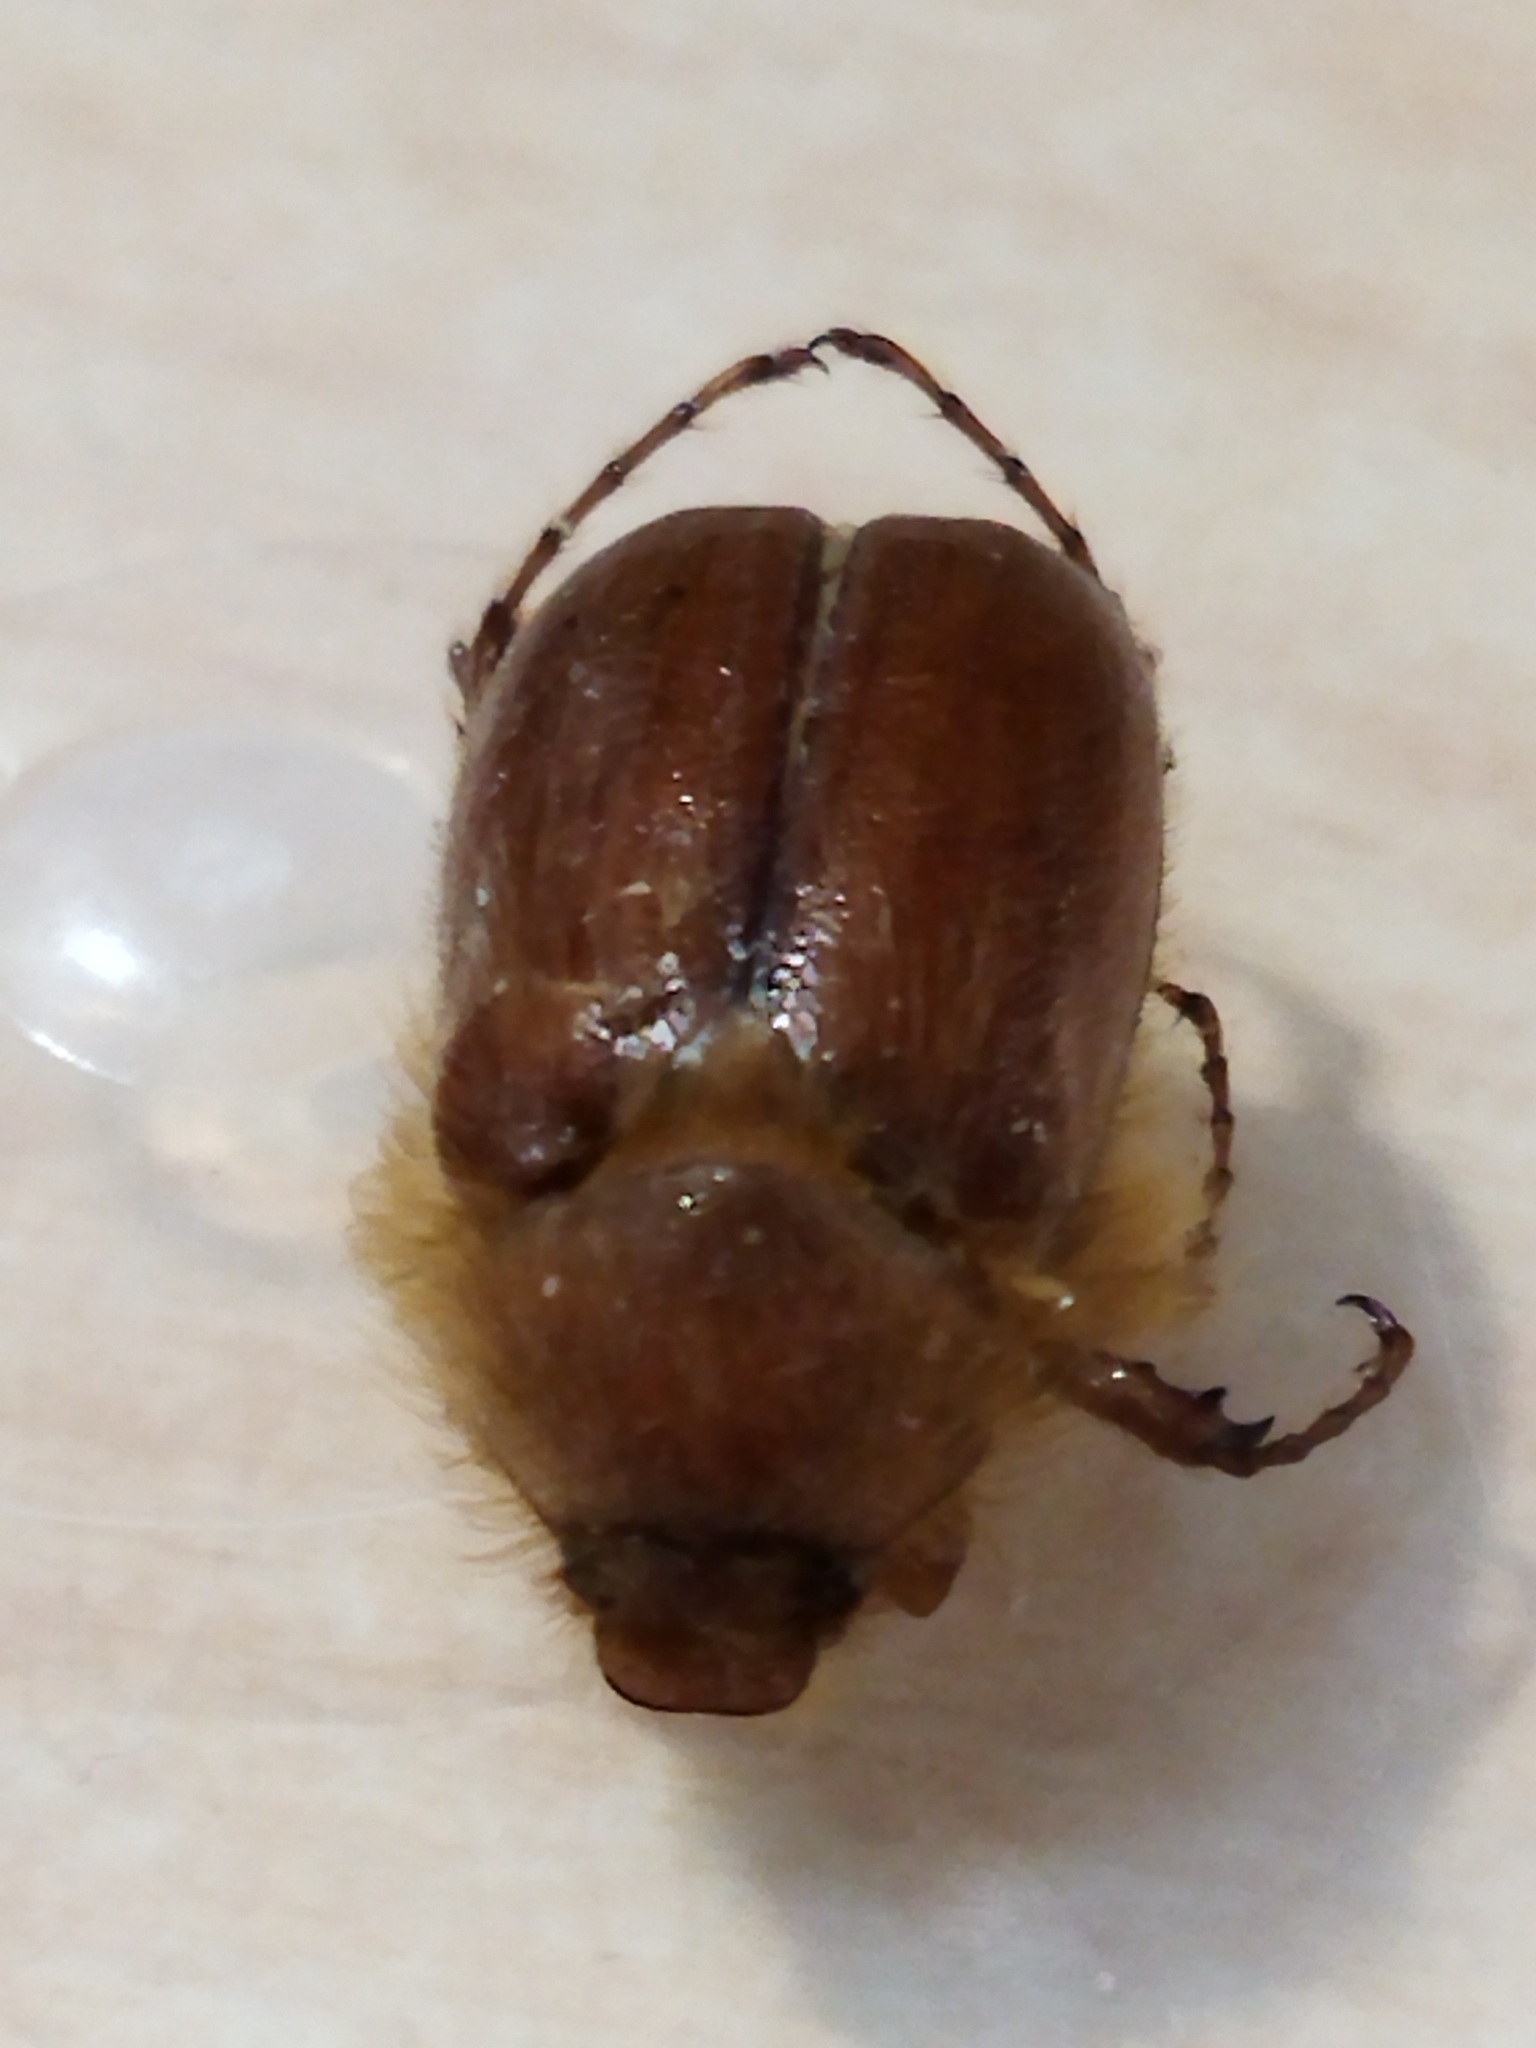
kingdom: Animalia
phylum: Arthropoda
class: Insecta
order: Coleoptera
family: Scarabaeidae
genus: Holochelus
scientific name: Holochelus aequinoctialis
